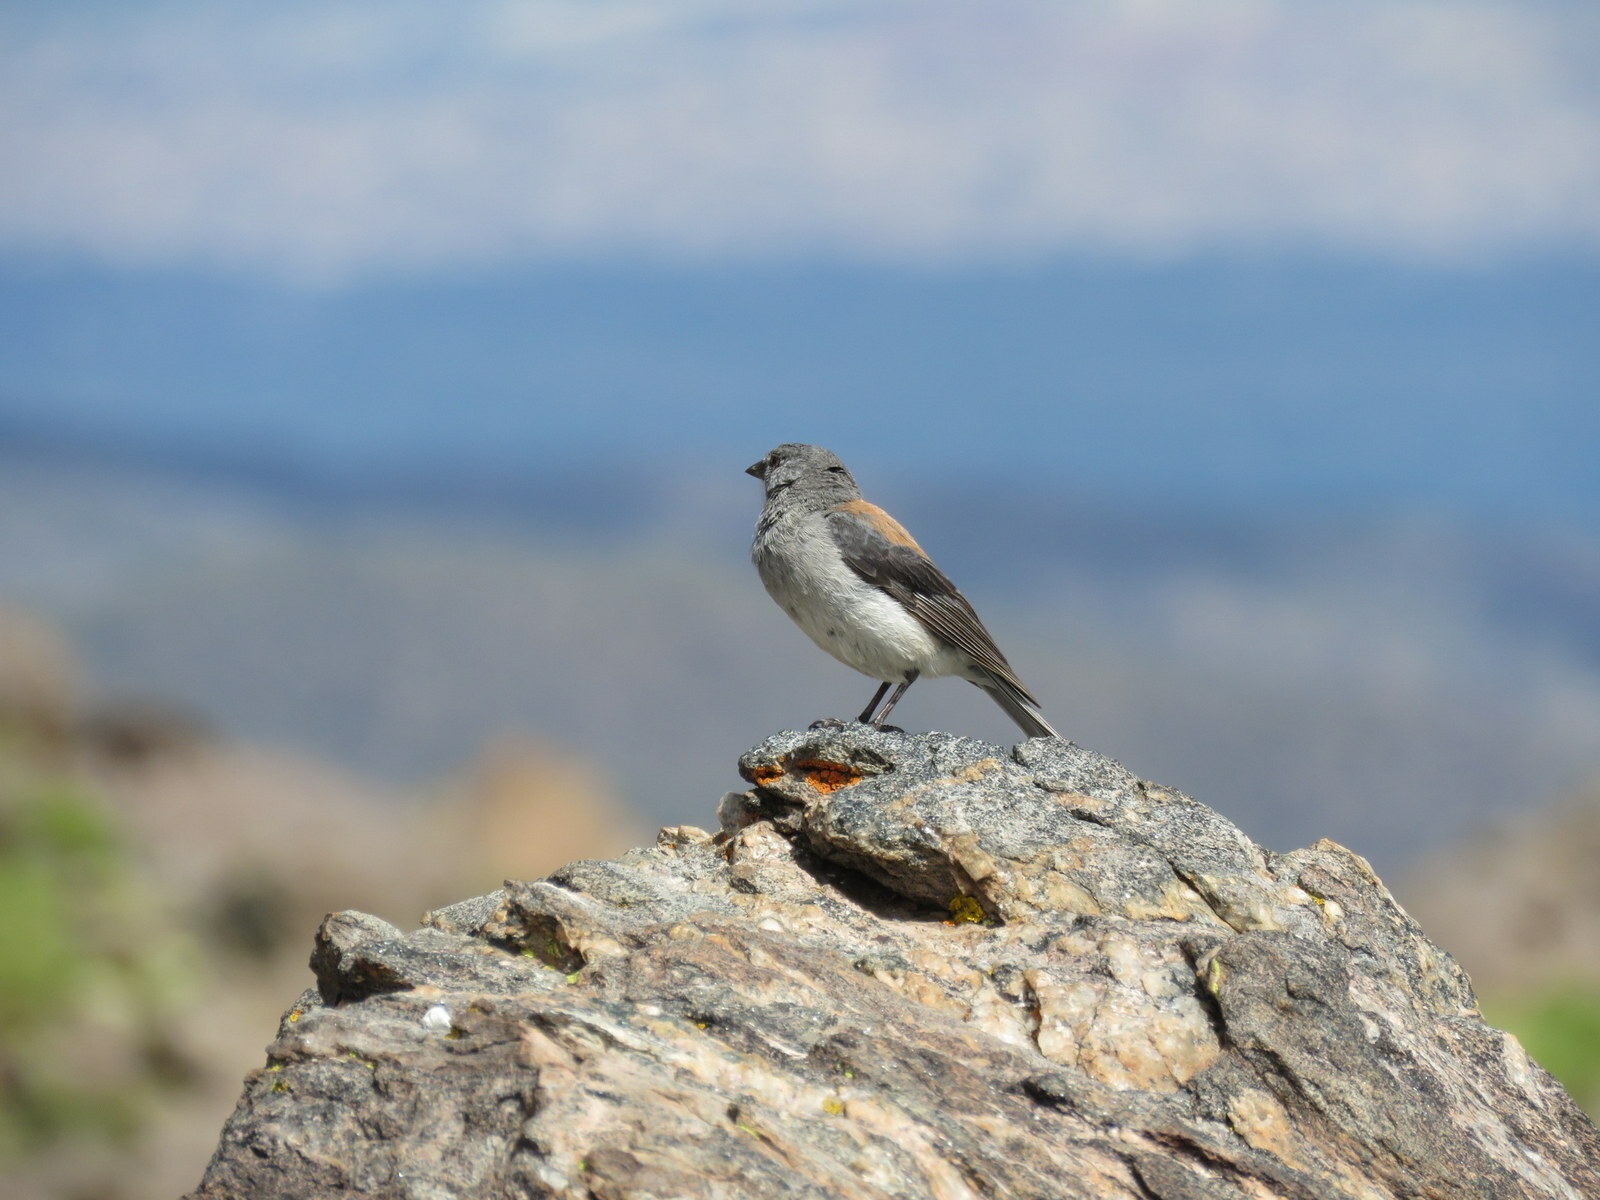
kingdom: Animalia
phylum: Chordata
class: Aves
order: Passeriformes
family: Thraupidae
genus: Idiopsar
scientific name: Idiopsar dorsalis
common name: Red-backed sierra finch
